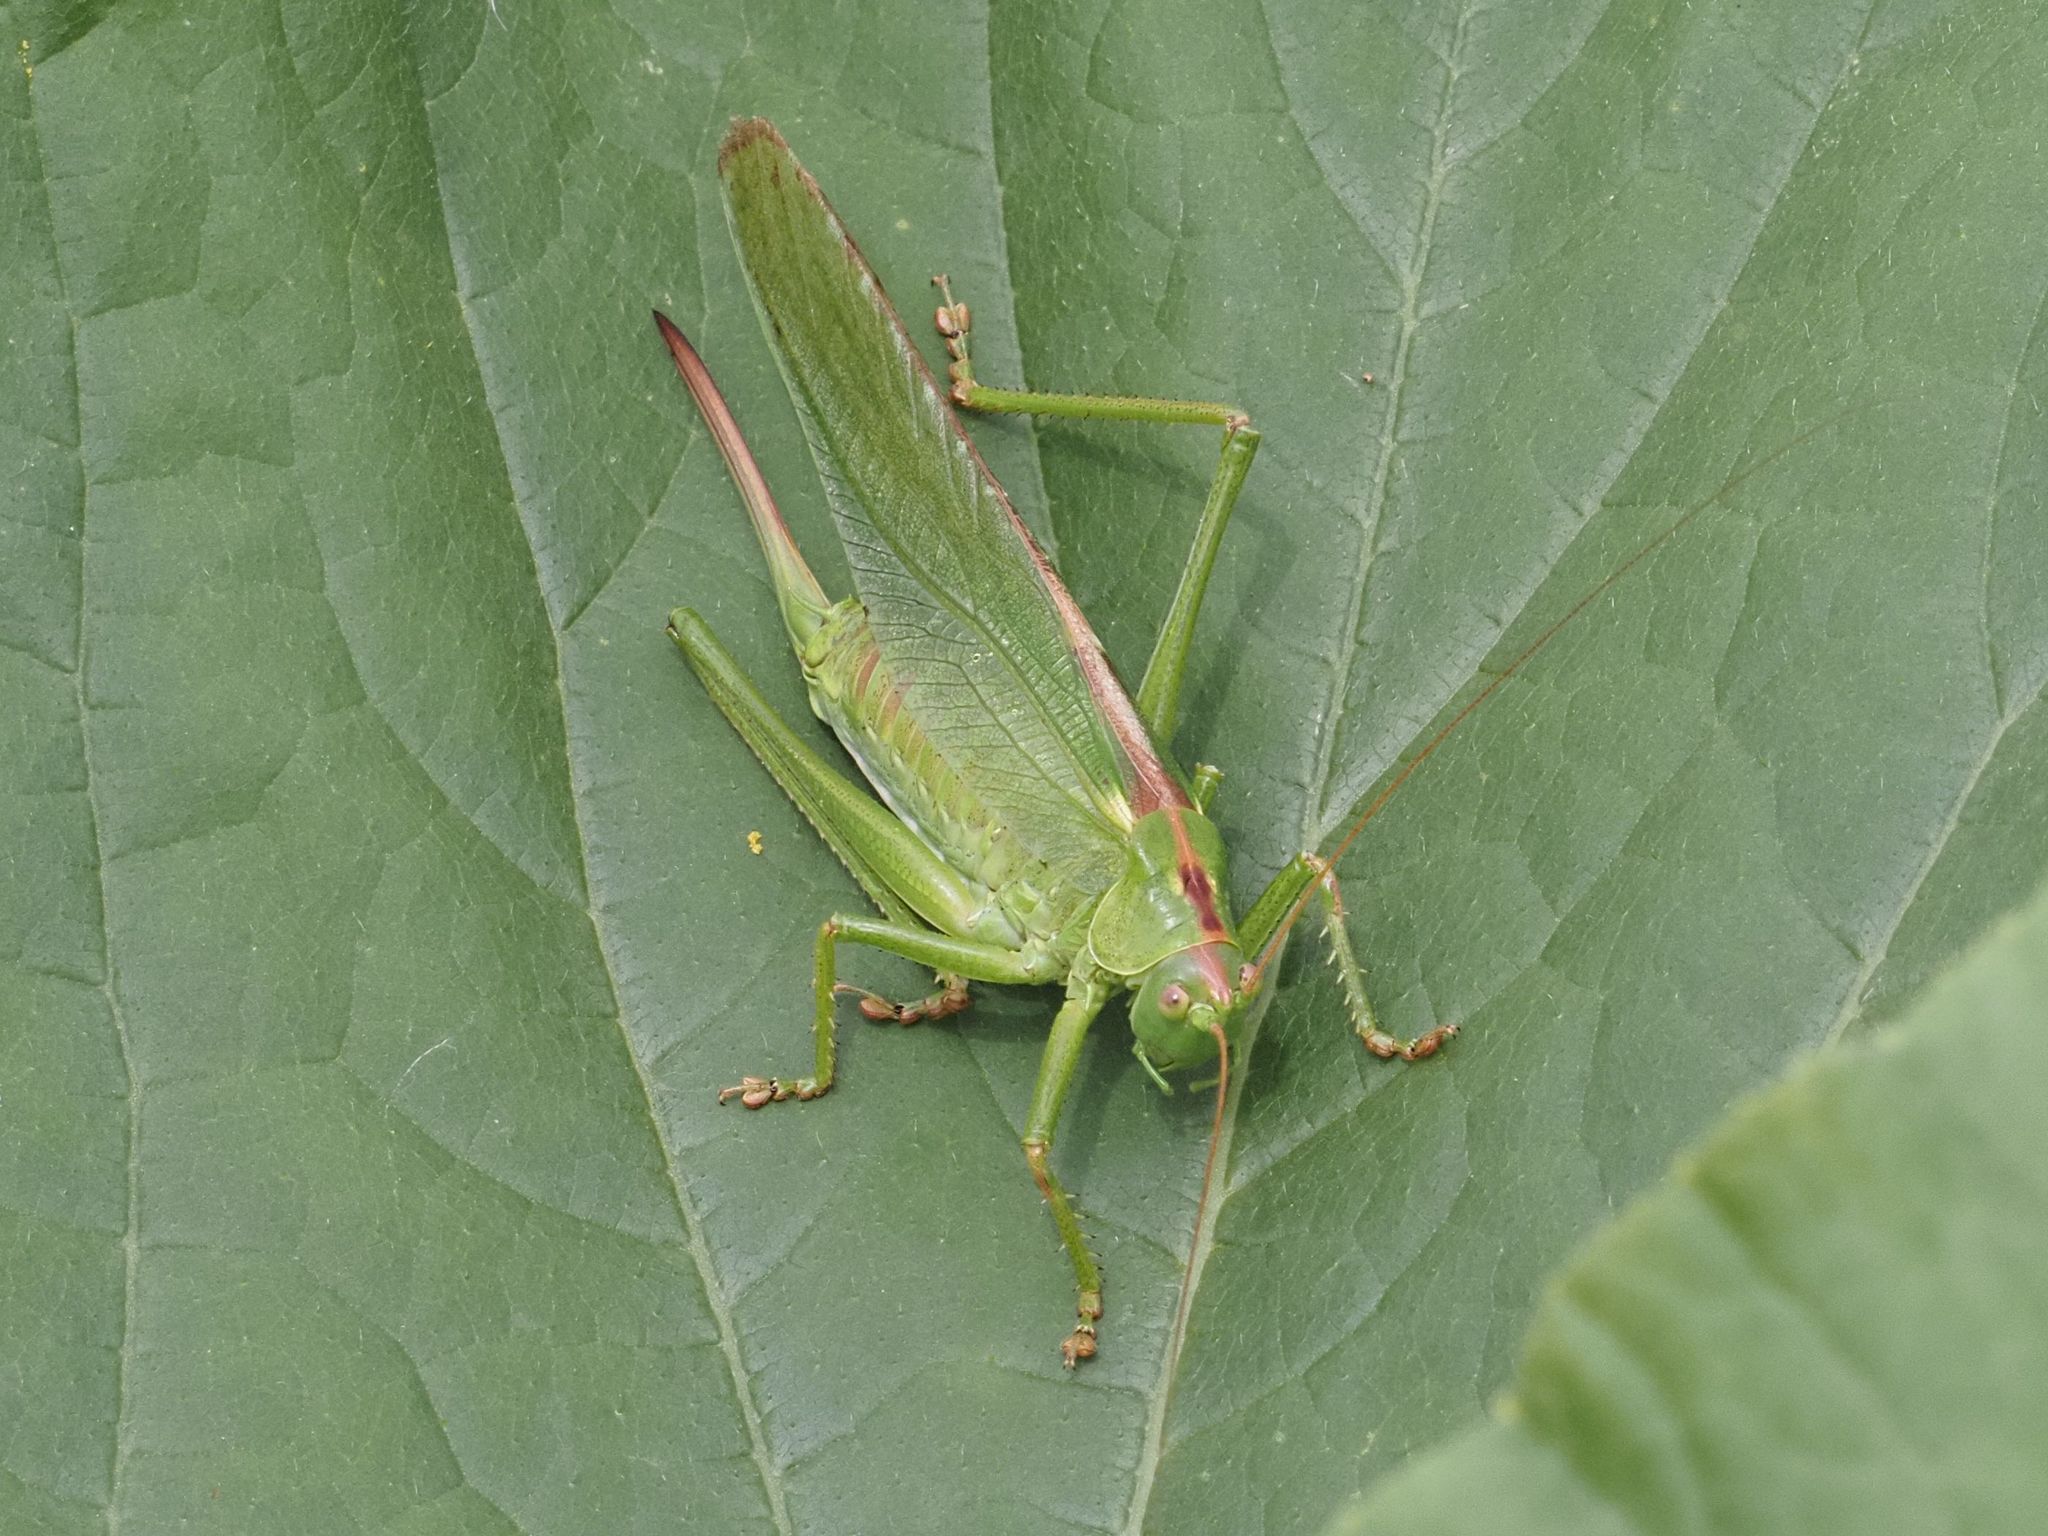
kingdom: Animalia
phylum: Arthropoda
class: Insecta
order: Orthoptera
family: Tettigoniidae
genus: Tettigonia
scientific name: Tettigonia viridissima
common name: Great green bush-cricket
